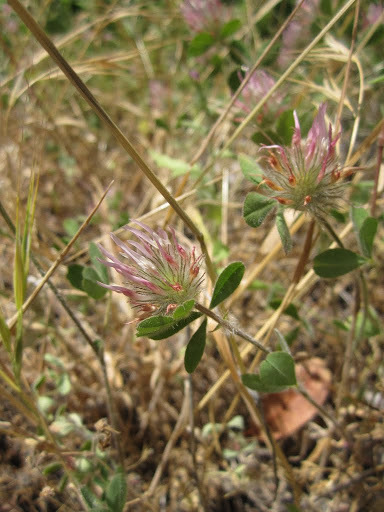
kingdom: Plantae
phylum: Tracheophyta
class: Magnoliopsida
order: Fabales
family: Fabaceae
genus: Trifolium
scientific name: Trifolium hirtum
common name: Rose clover
